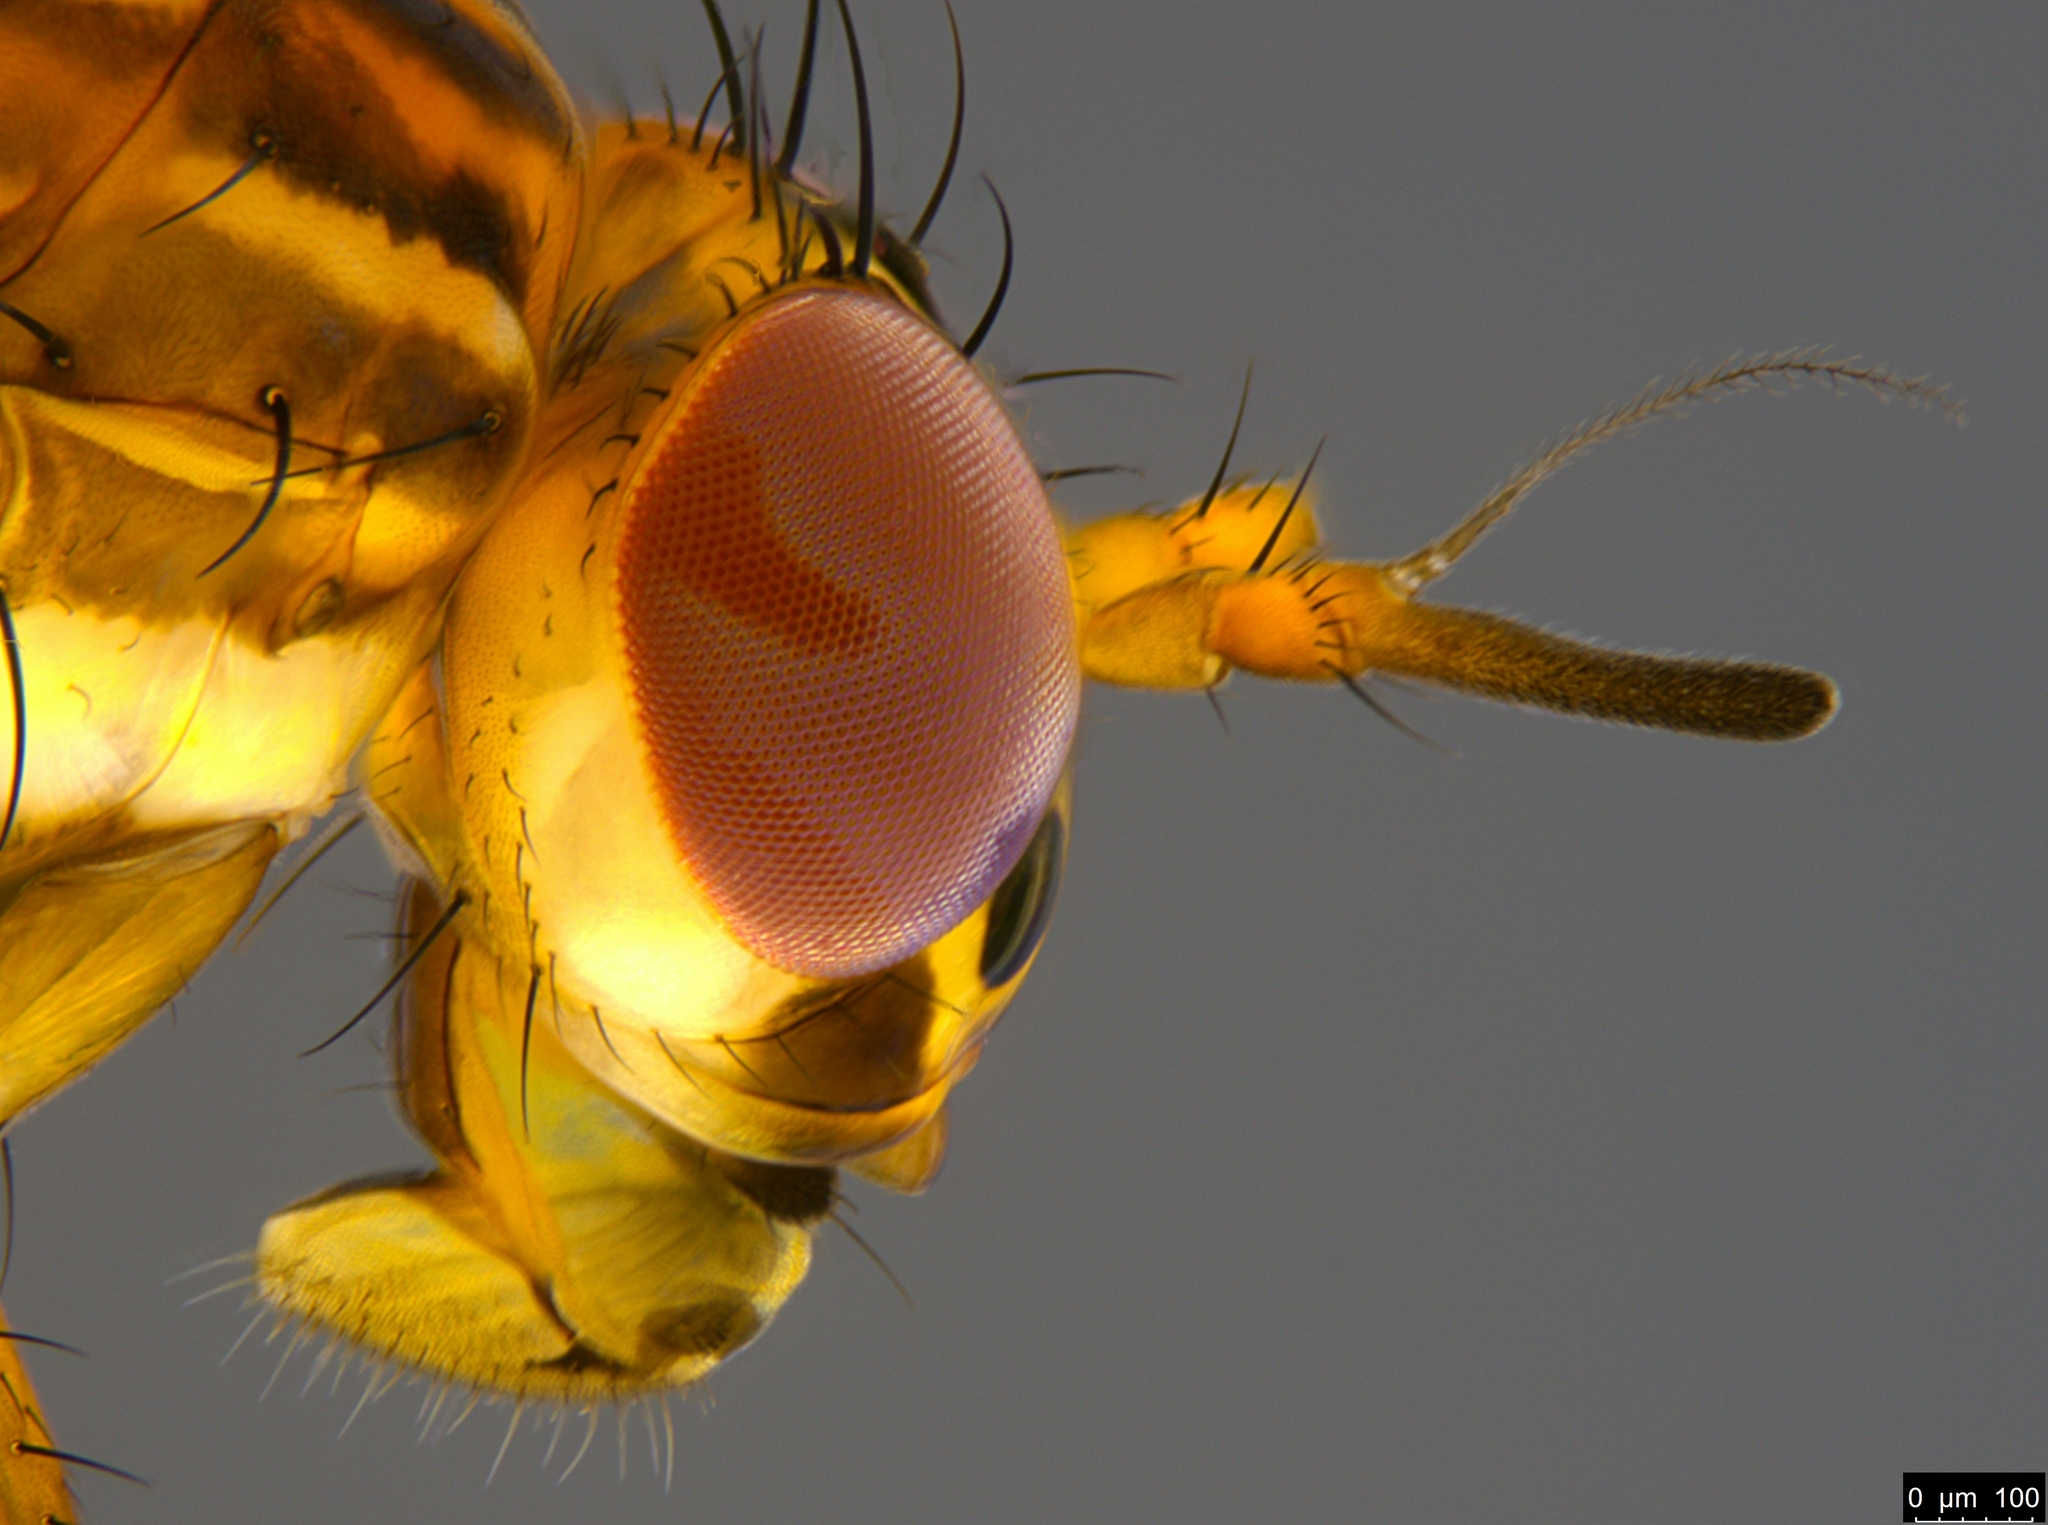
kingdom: Animalia
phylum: Arthropoda
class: Insecta
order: Diptera
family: Lauxaniidae
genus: Steganopsis
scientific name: Steganopsis melanogaster
